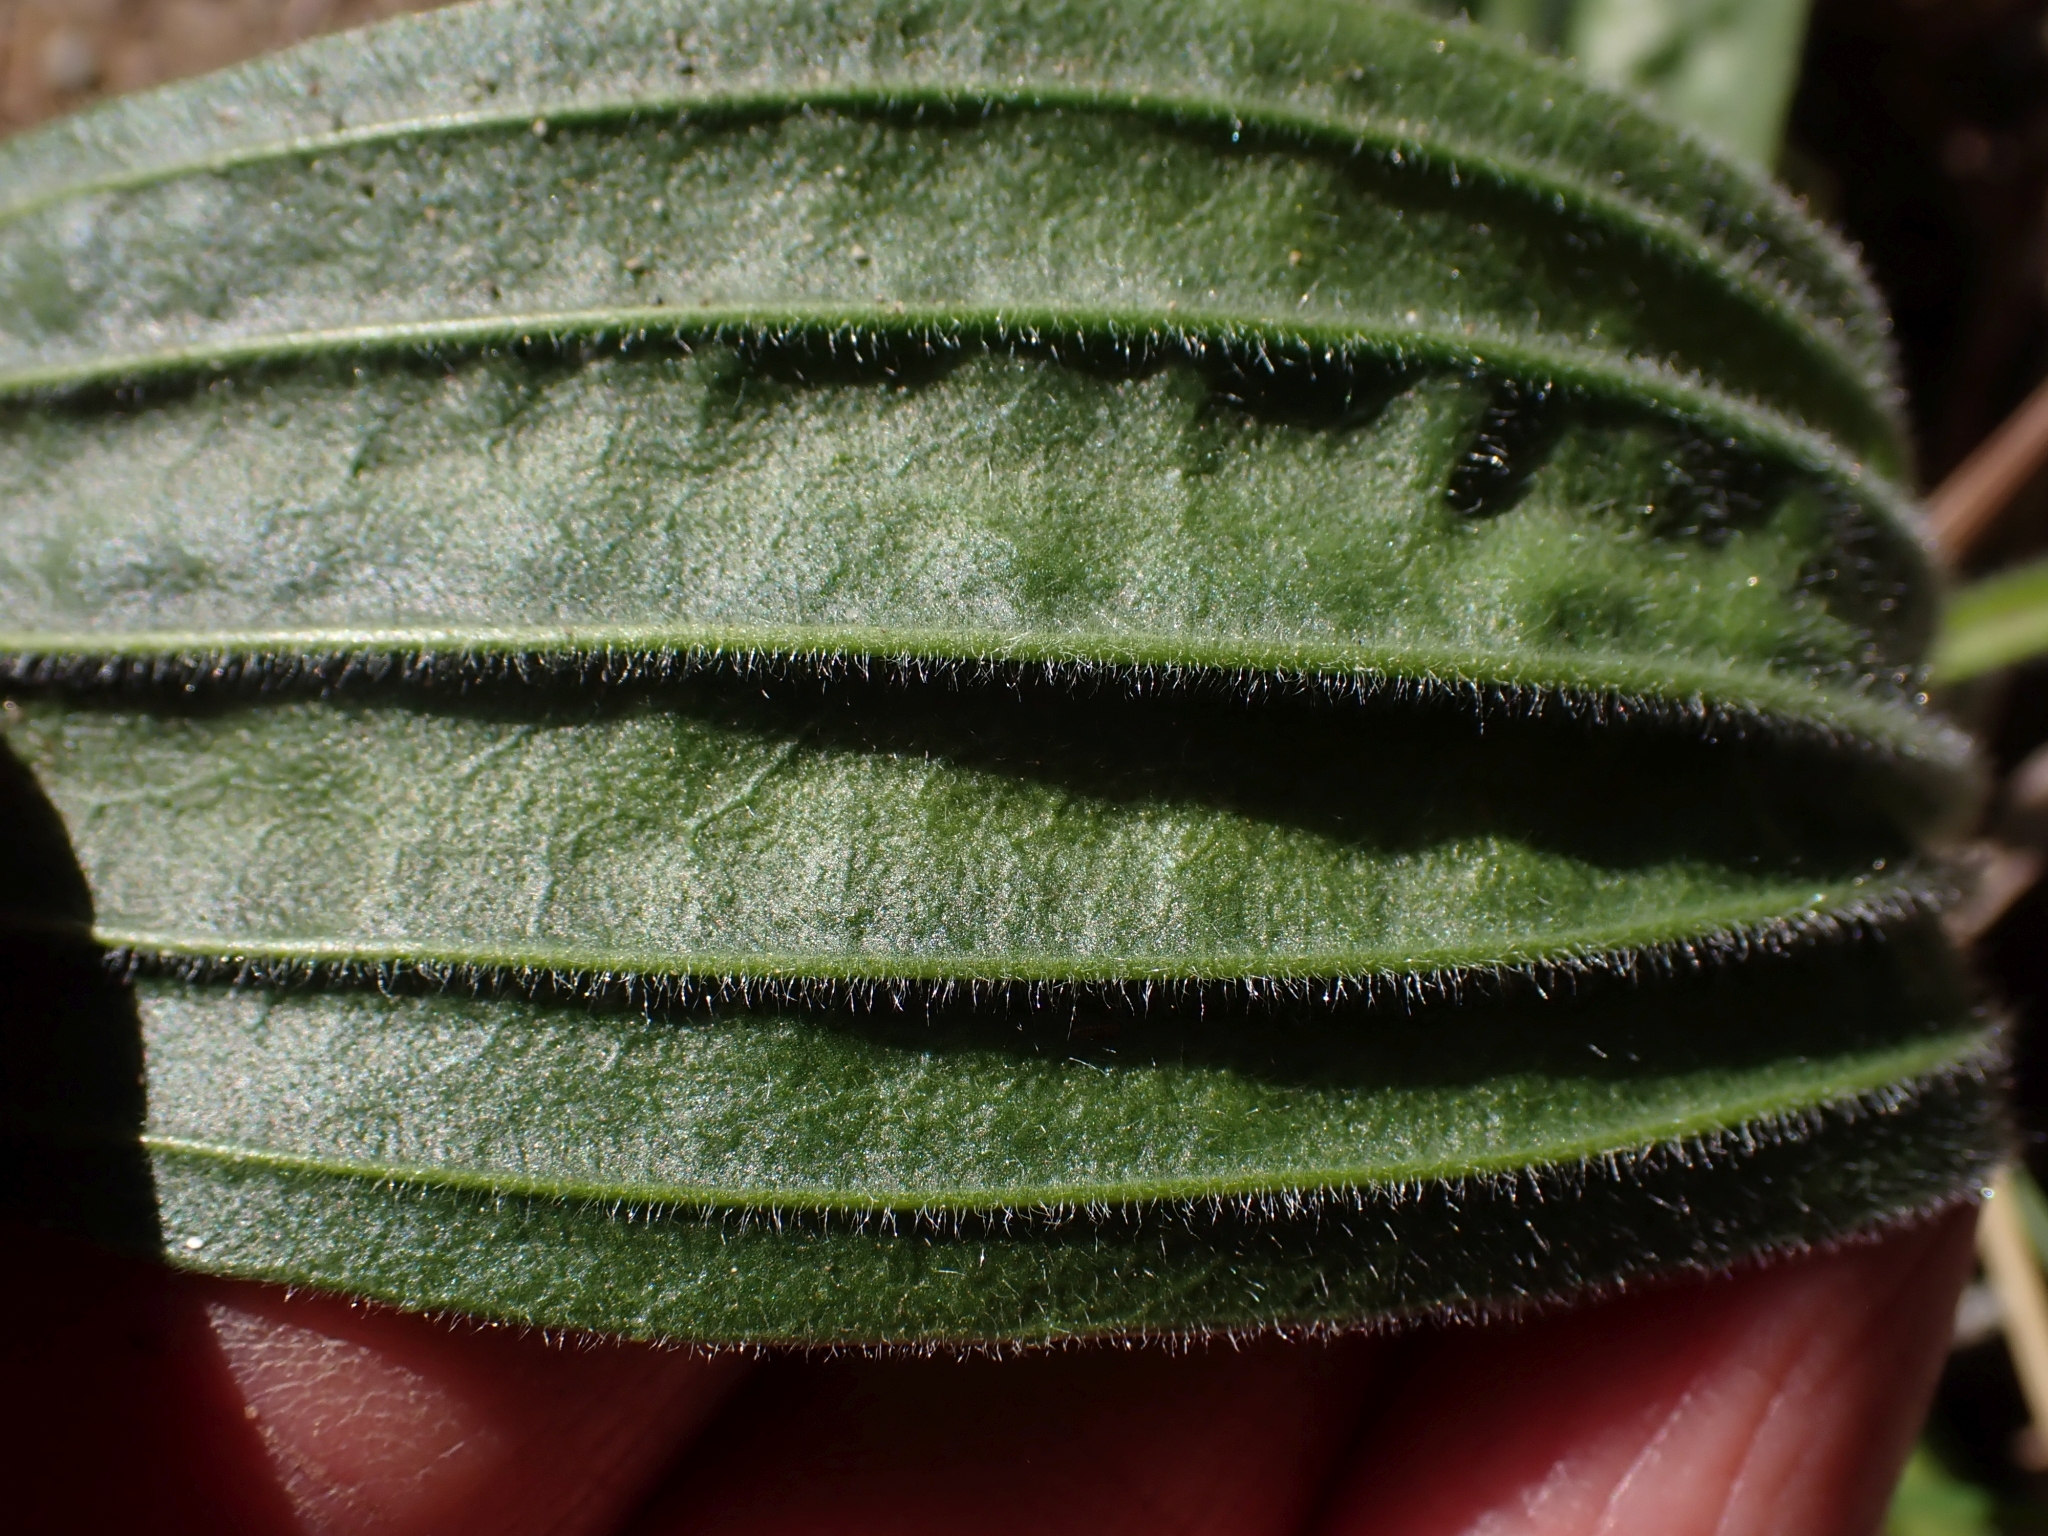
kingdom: Plantae
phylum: Tracheophyta
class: Magnoliopsida
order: Lamiales
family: Plantaginaceae
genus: Plantago
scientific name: Plantago lanceolata
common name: Ribwort plantain
